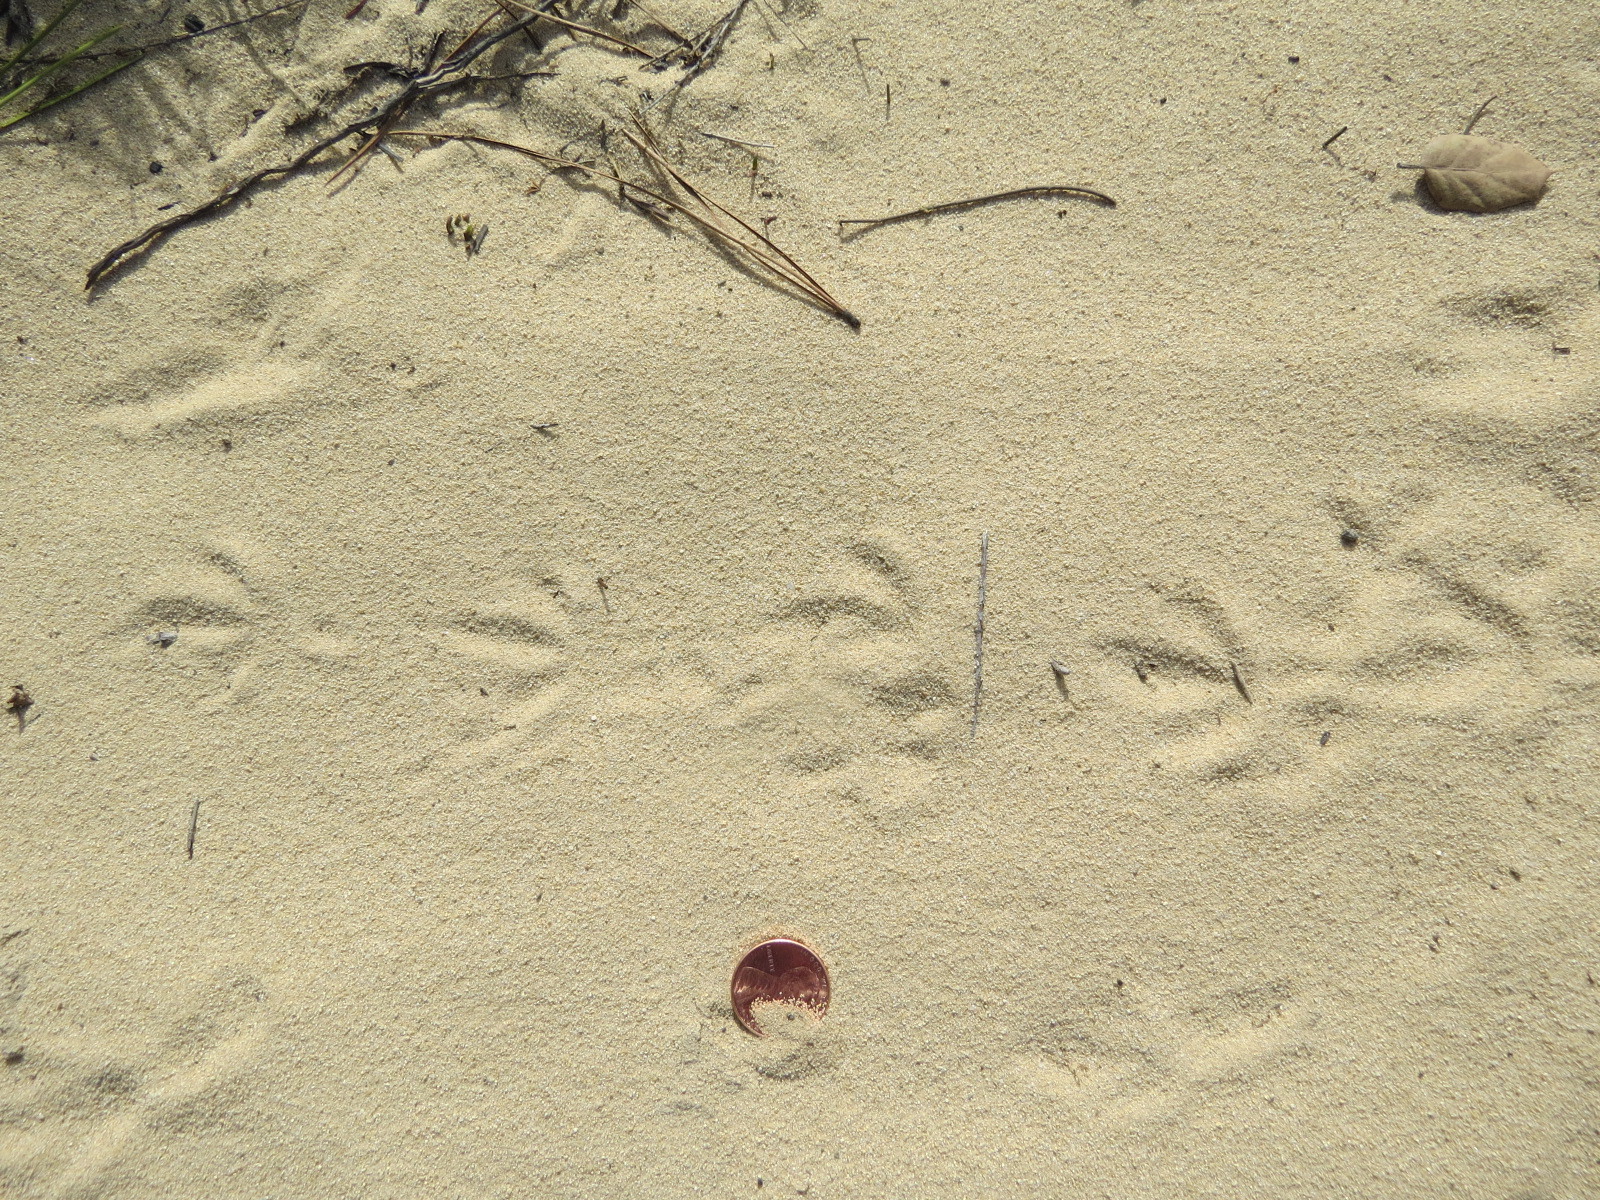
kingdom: Animalia
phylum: Chordata
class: Aves
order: Columbiformes
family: Columbidae
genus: Zenaida
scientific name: Zenaida macroura
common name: Mourning dove
